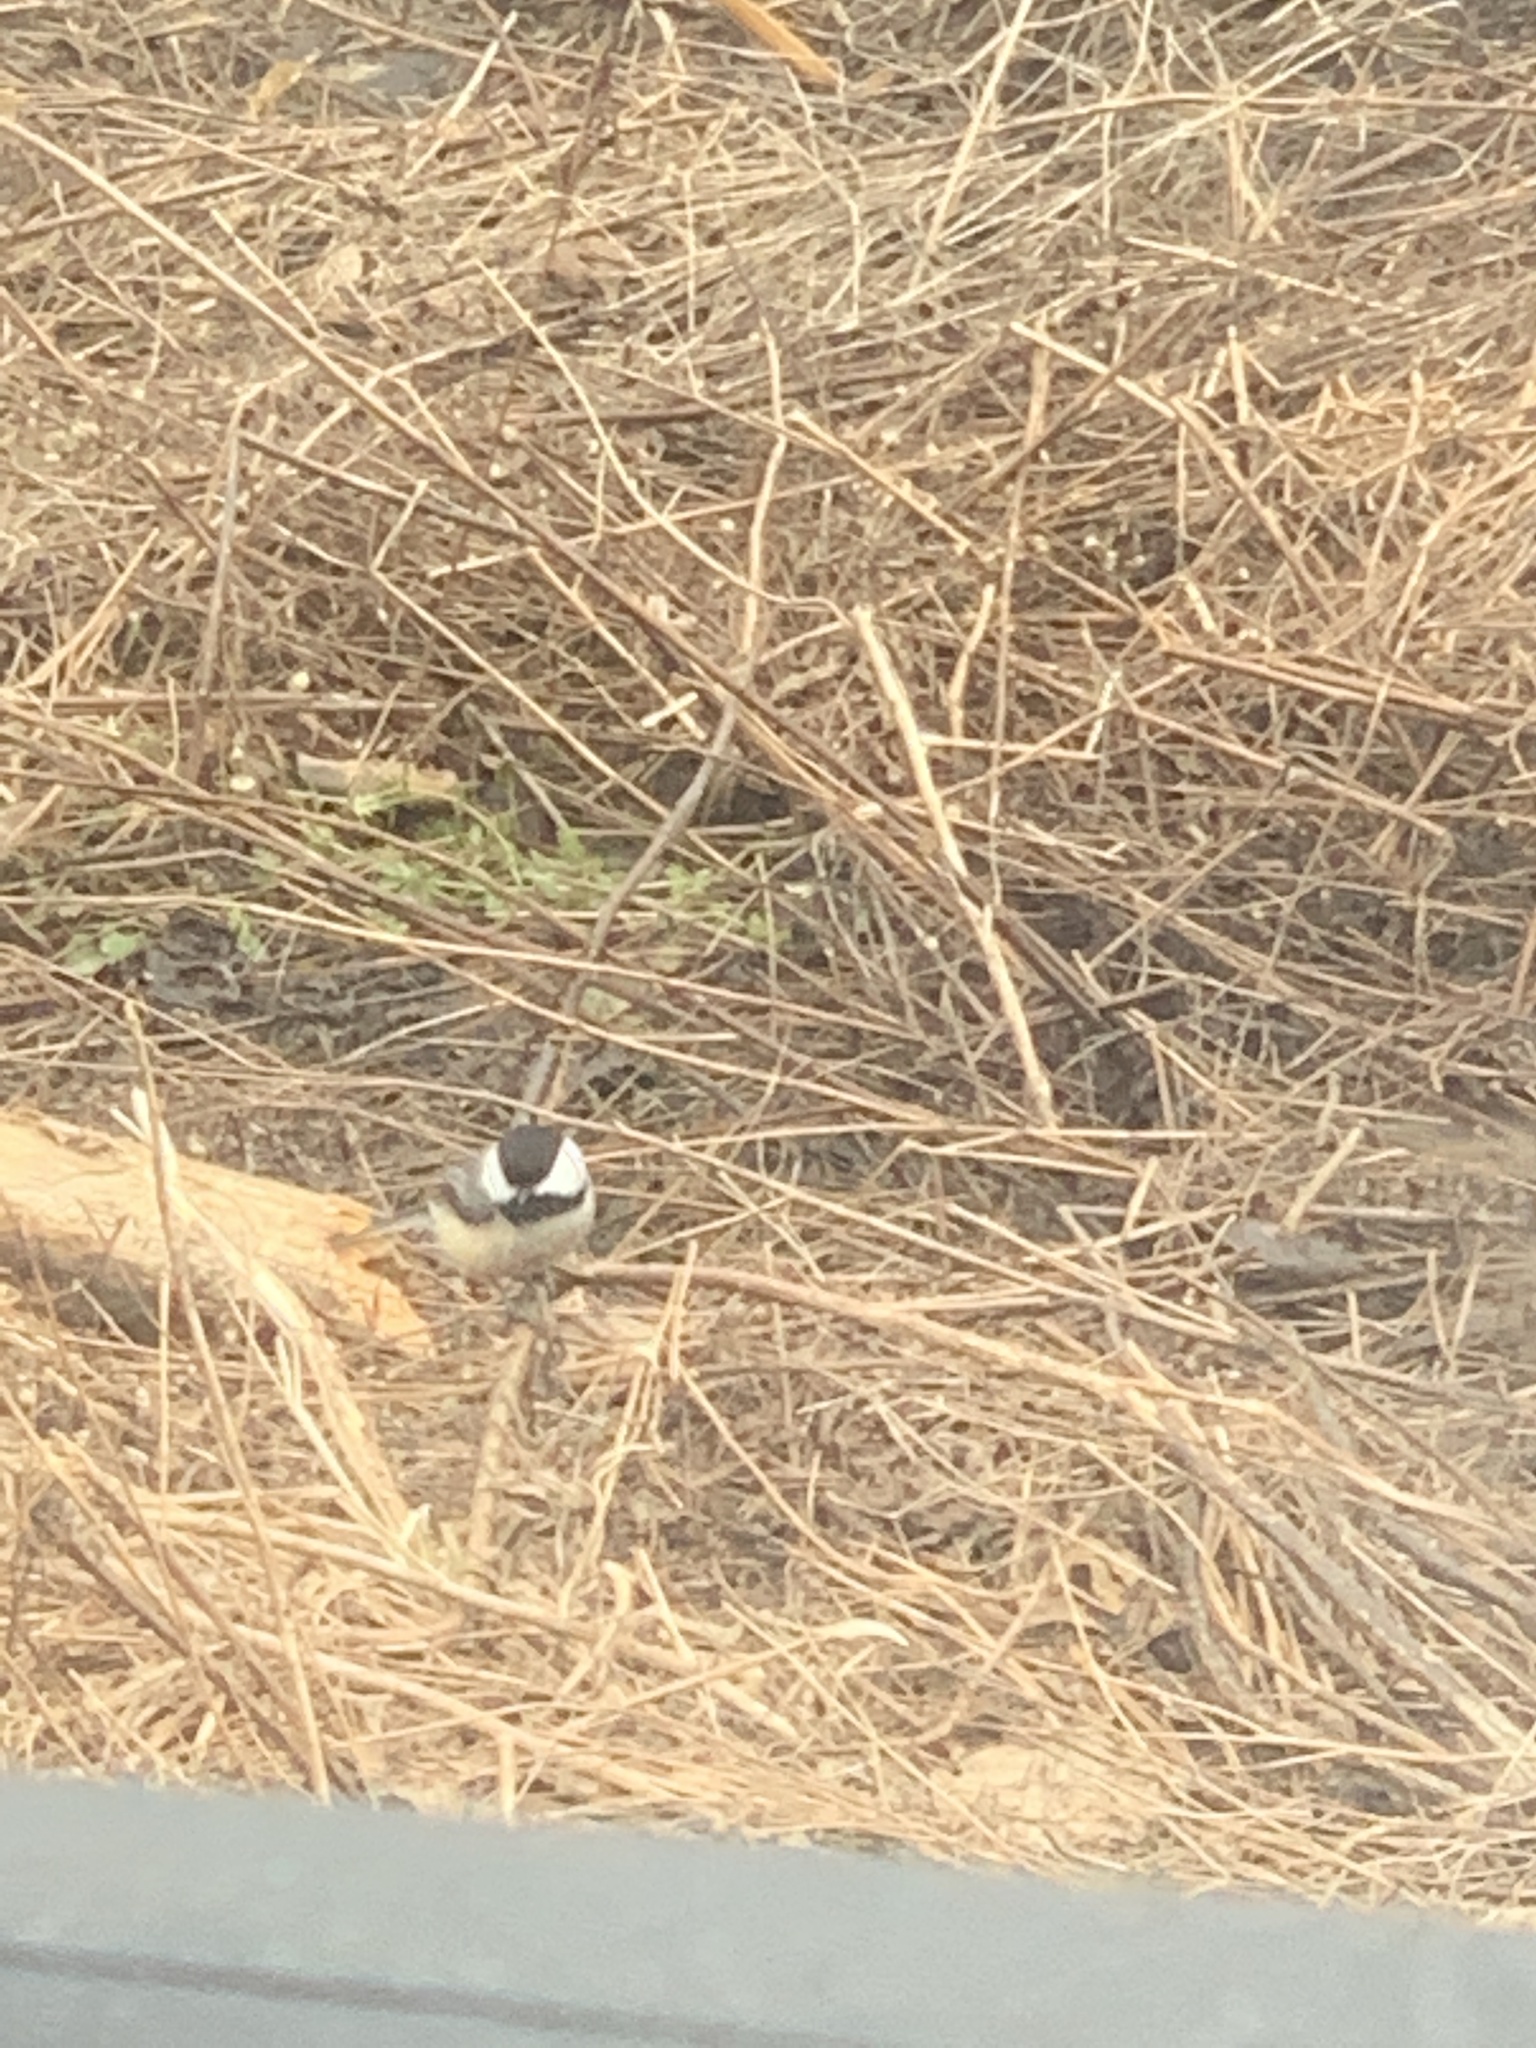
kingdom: Animalia
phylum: Chordata
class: Aves
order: Passeriformes
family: Paridae
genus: Poecile
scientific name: Poecile atricapillus
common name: Black-capped chickadee
